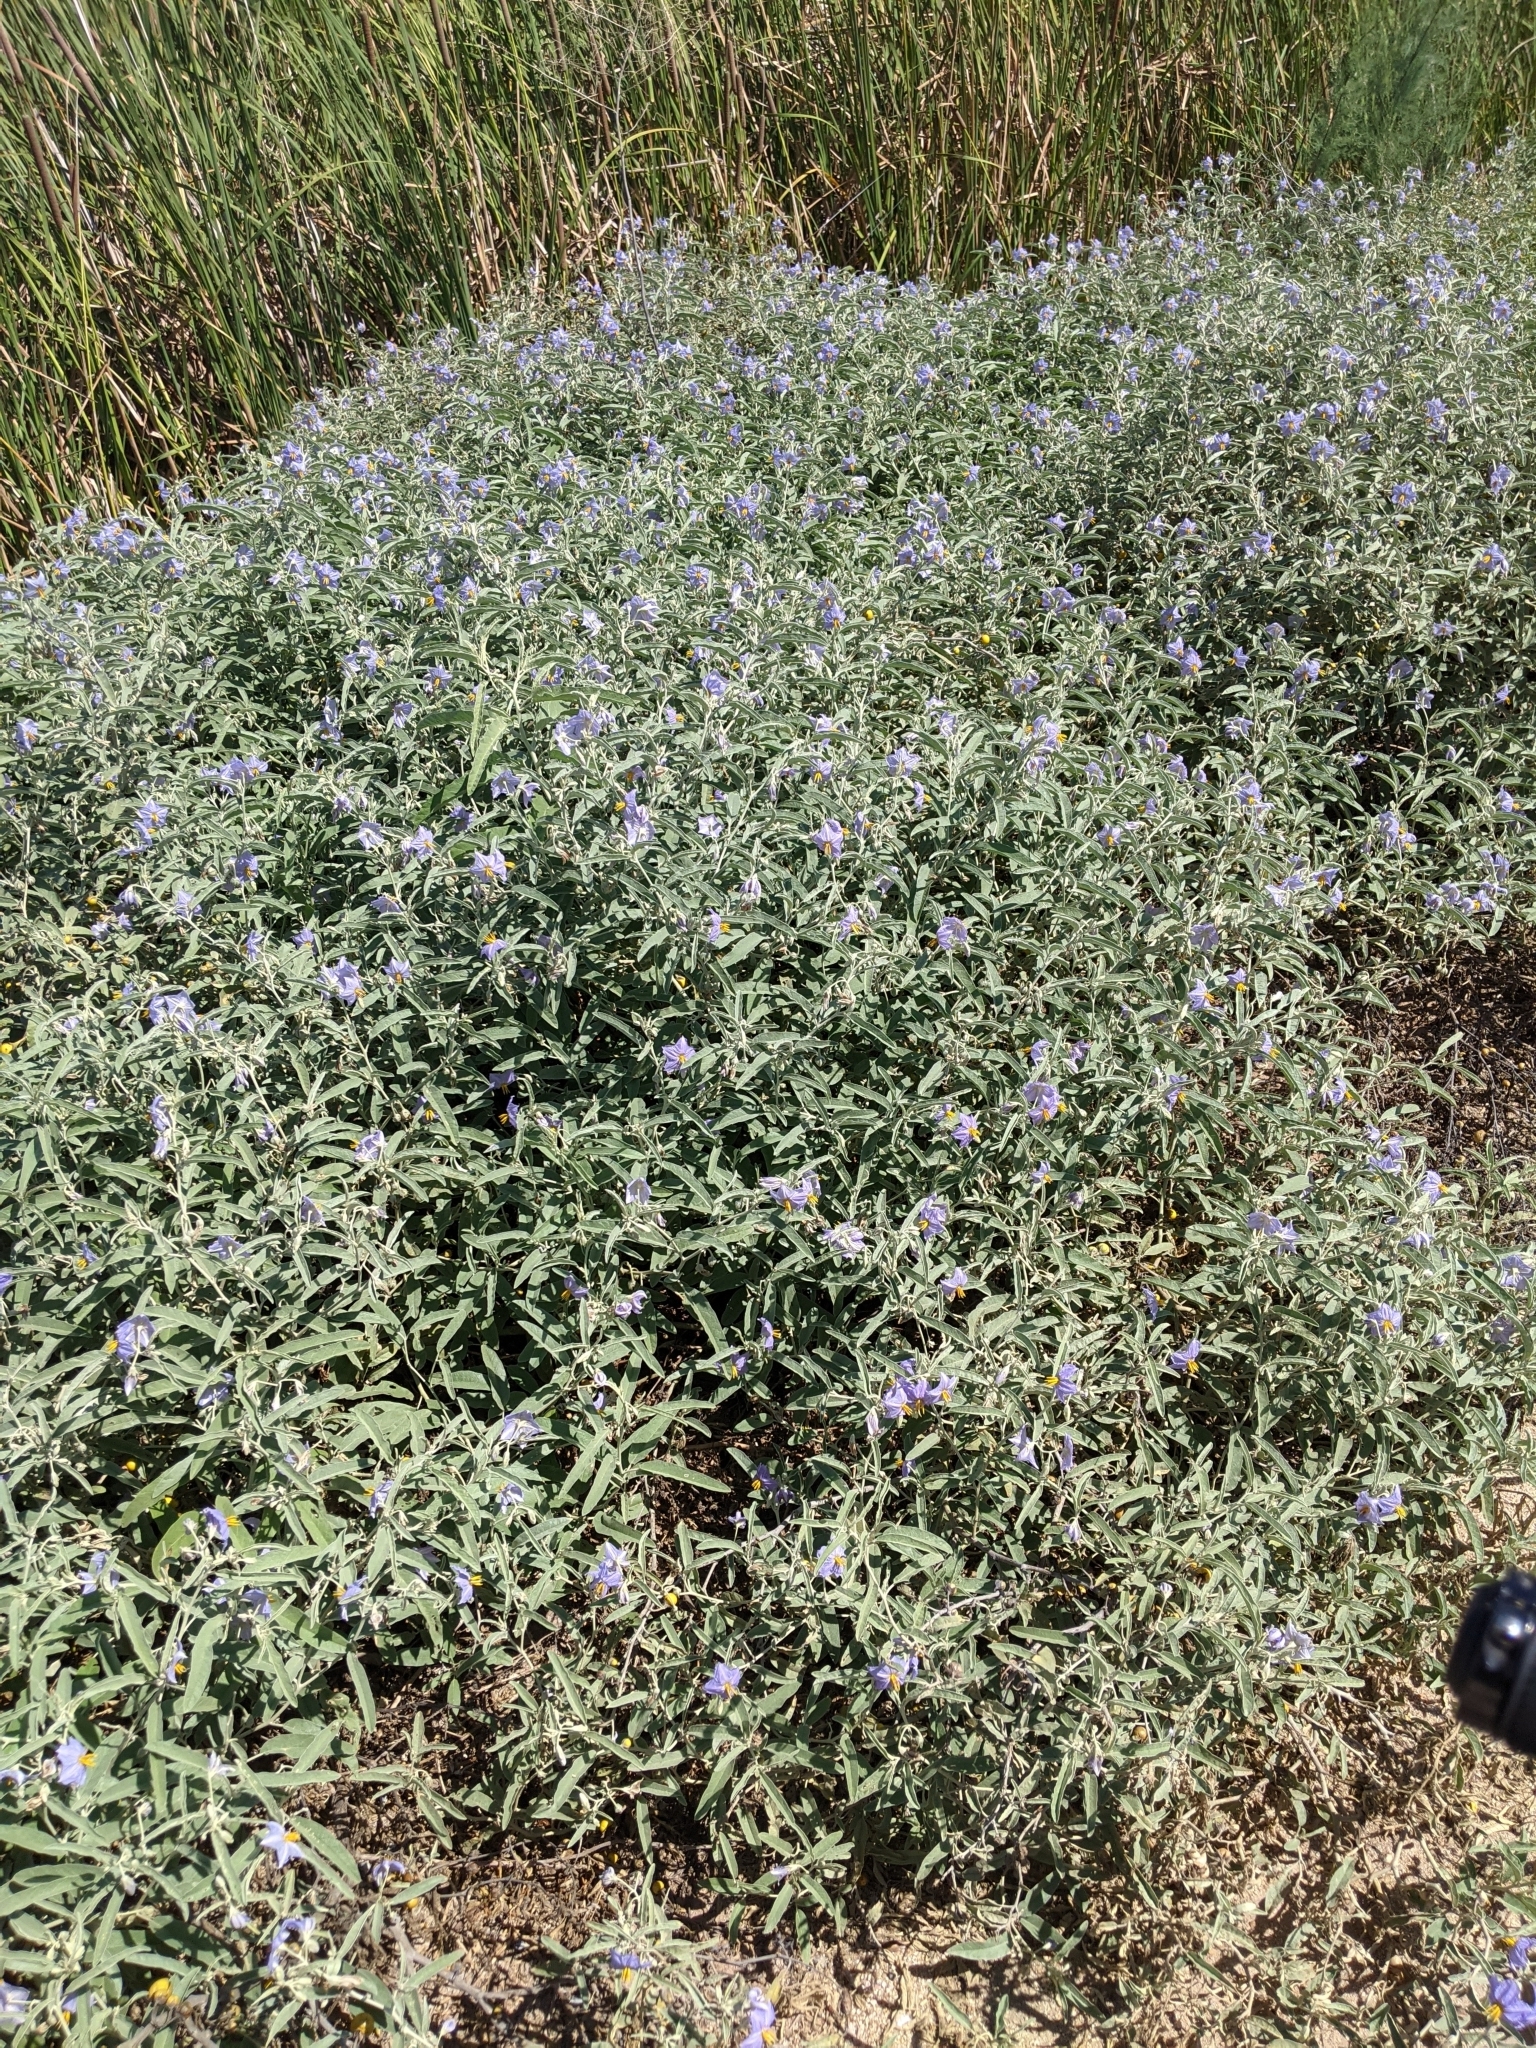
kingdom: Plantae
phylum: Tracheophyta
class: Magnoliopsida
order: Solanales
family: Solanaceae
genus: Solanum
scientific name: Solanum elaeagnifolium
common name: Silverleaf nightshade
